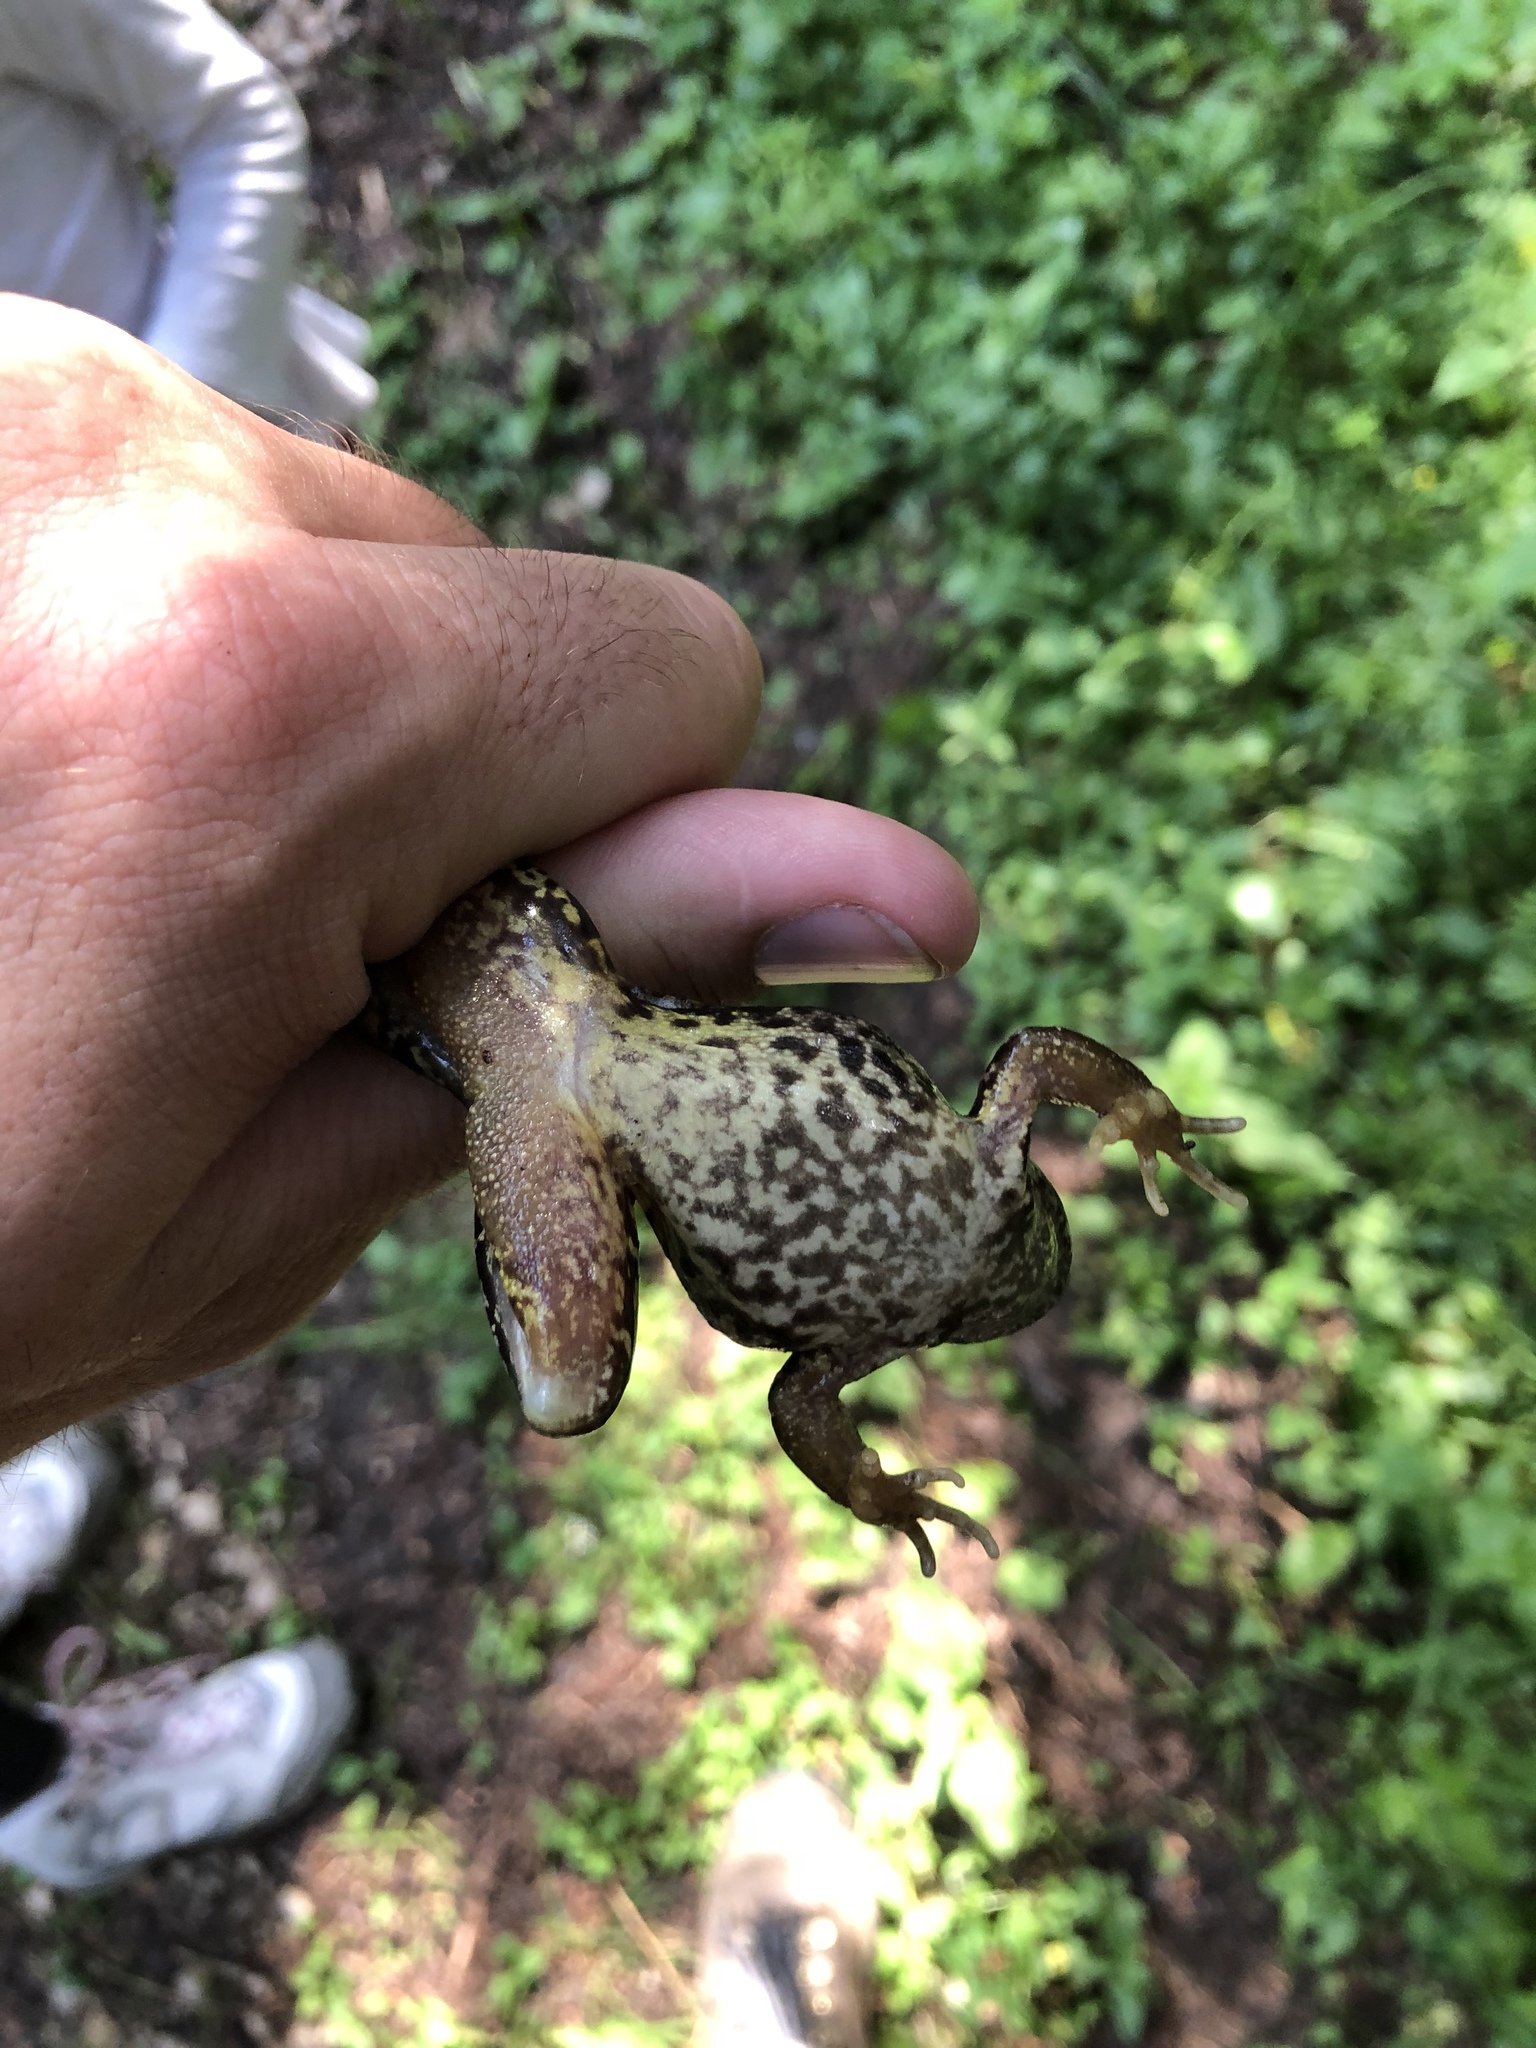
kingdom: Animalia
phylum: Chordata
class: Amphibia
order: Anura
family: Ranidae
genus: Rana
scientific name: Rana temporaria
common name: Common frog
